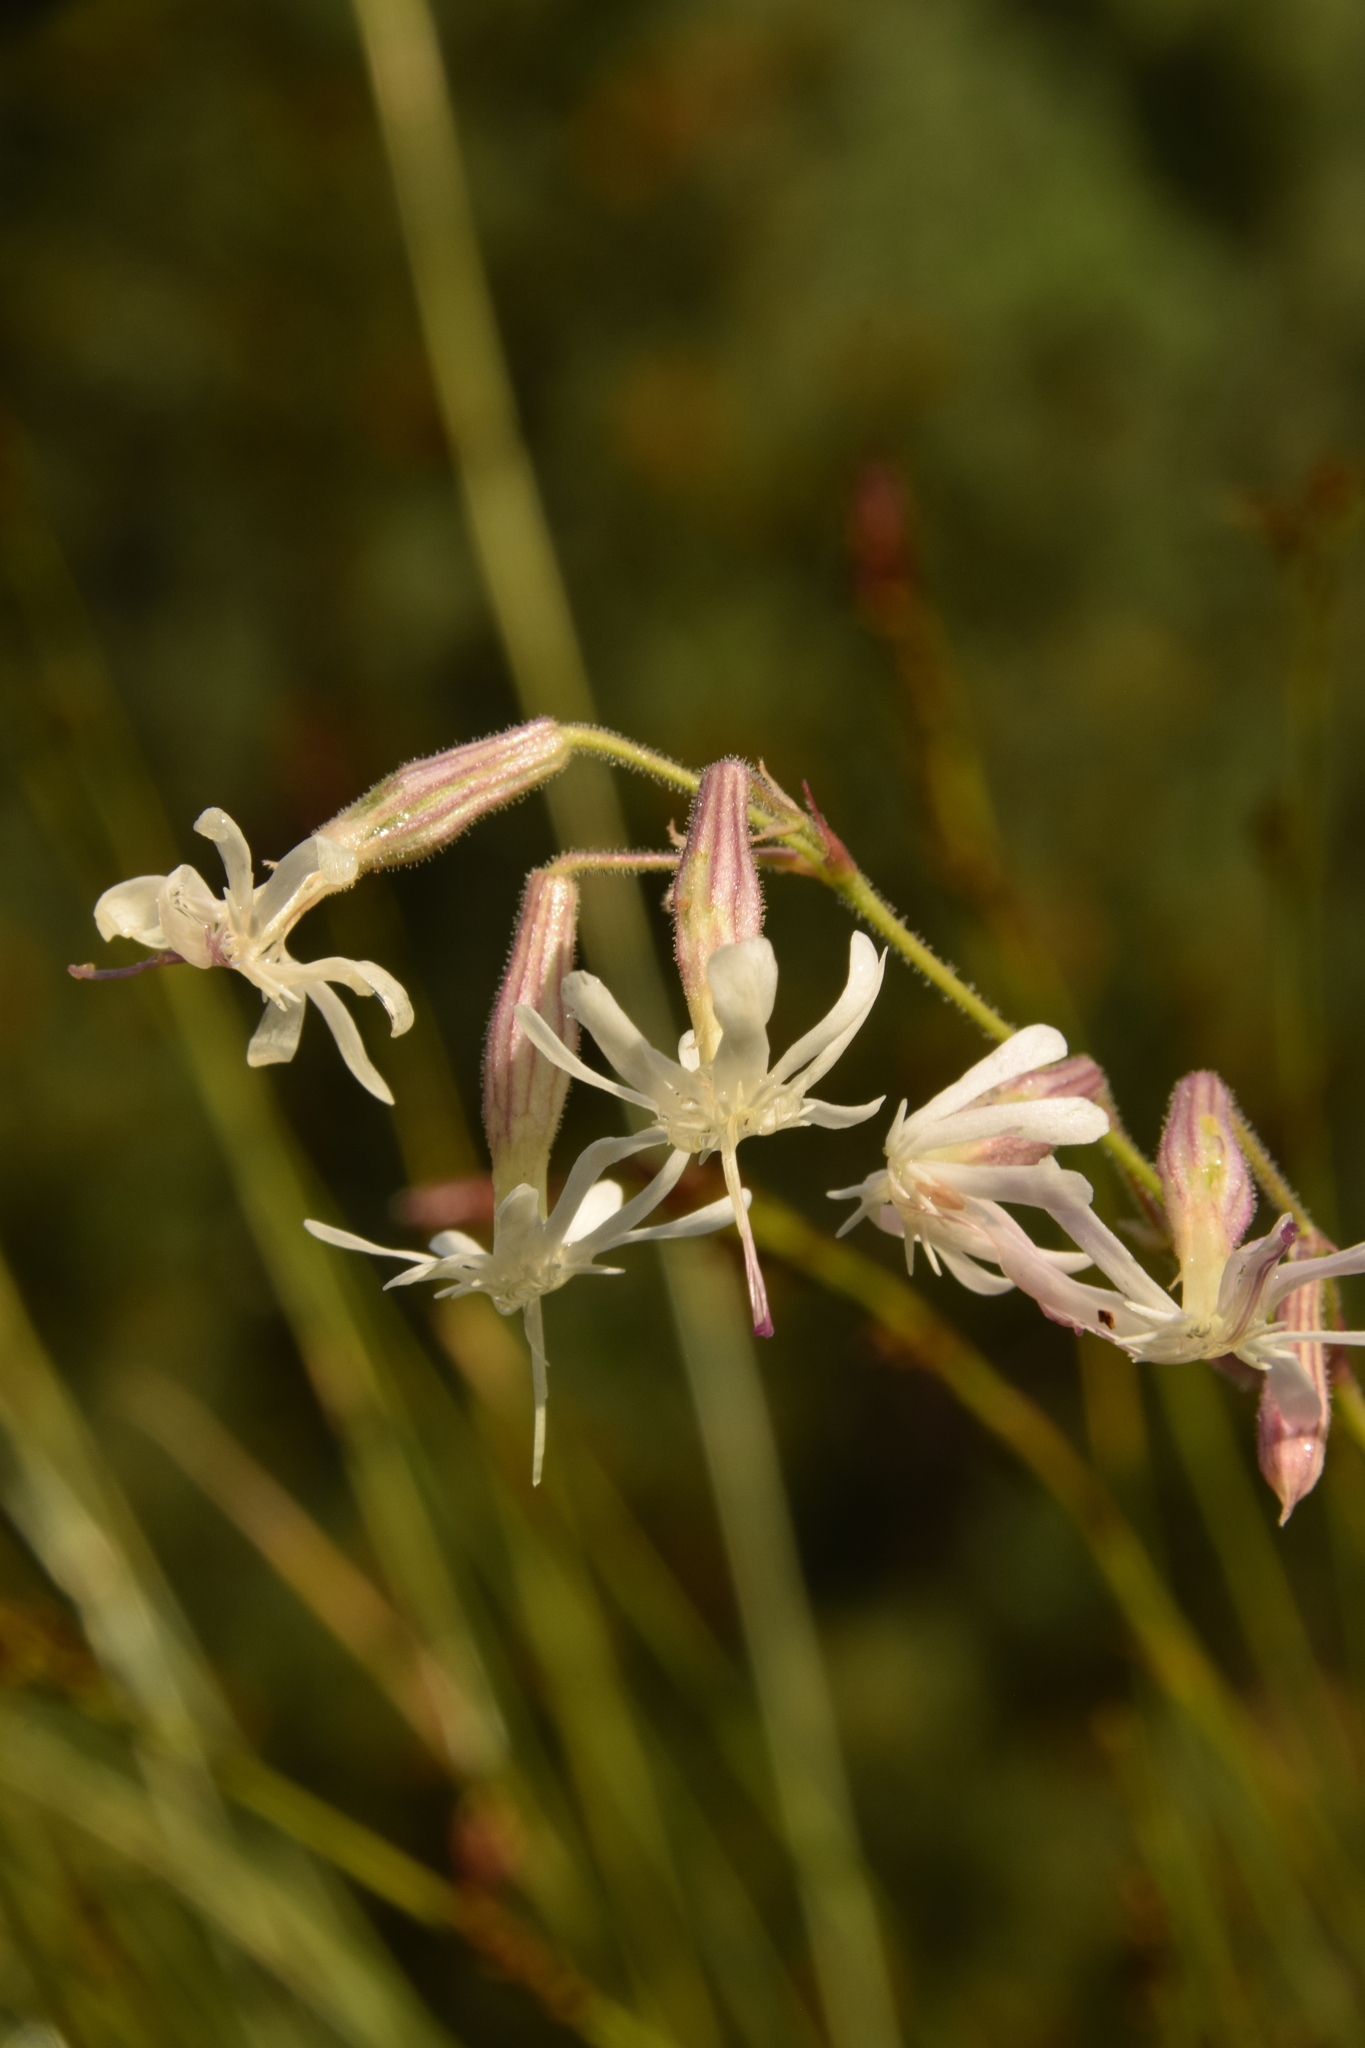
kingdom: Plantae
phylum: Tracheophyta
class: Magnoliopsida
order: Caryophyllales
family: Caryophyllaceae
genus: Silene
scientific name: Silene nutans
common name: Nottingham catchfly
